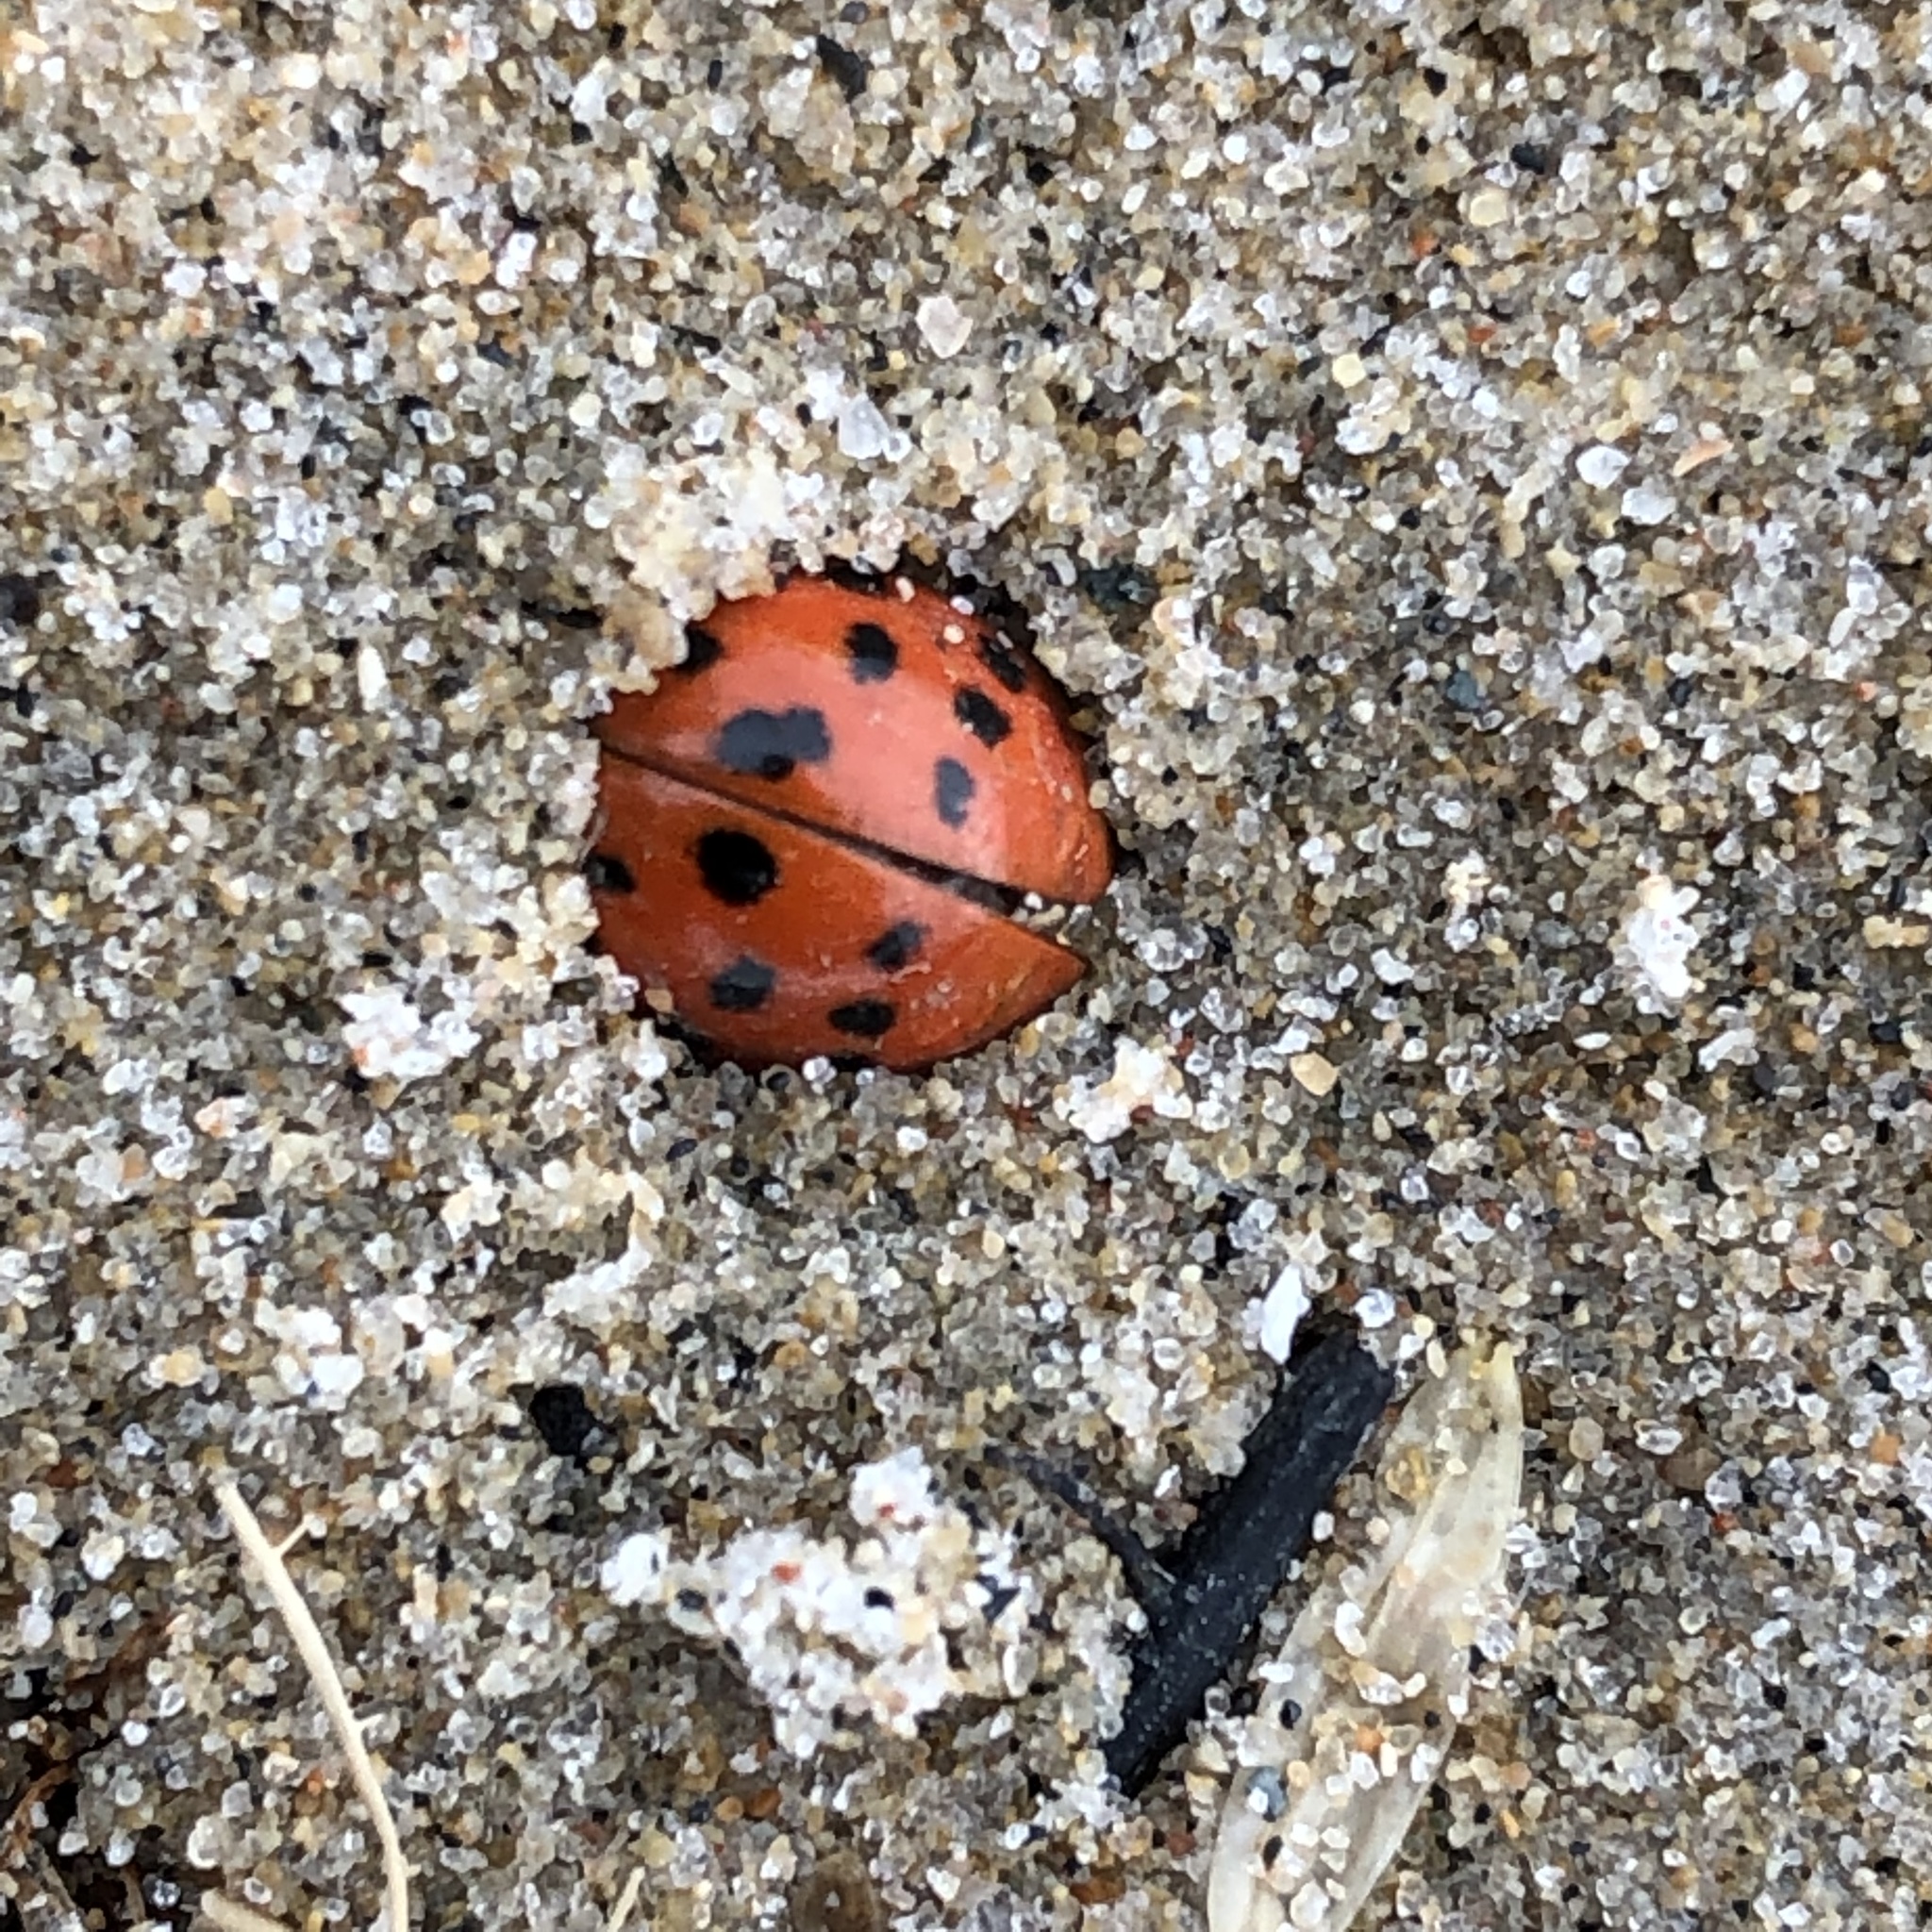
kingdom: Animalia
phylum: Arthropoda
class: Insecta
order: Coleoptera
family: Coccinellidae
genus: Harmonia
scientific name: Harmonia axyridis
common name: Harlequin ladybird
